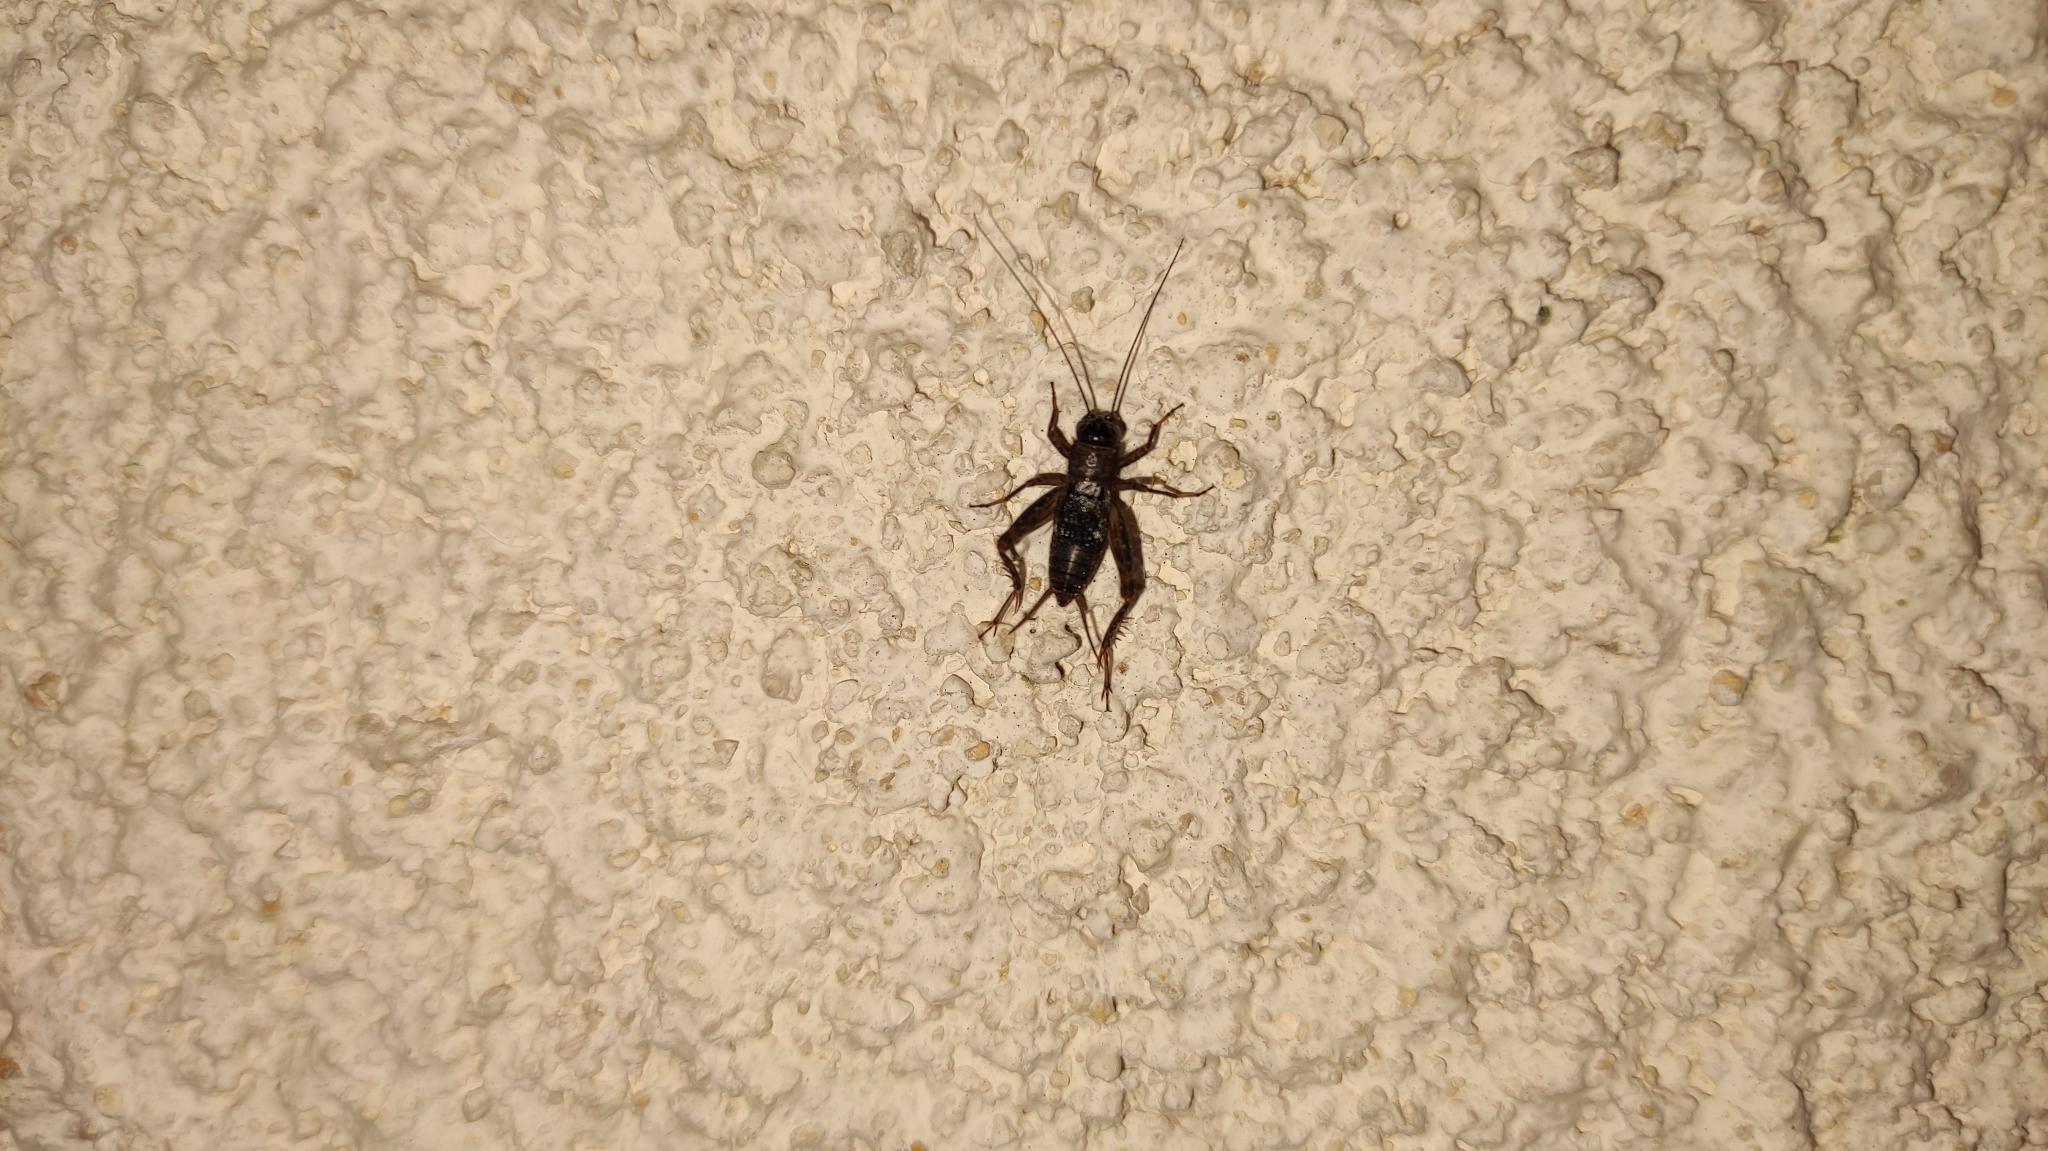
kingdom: Animalia
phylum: Arthropoda
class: Insecta
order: Orthoptera
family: Trigonidiidae
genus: Nemobius
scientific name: Nemobius sylvestris
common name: Wood-cricket
